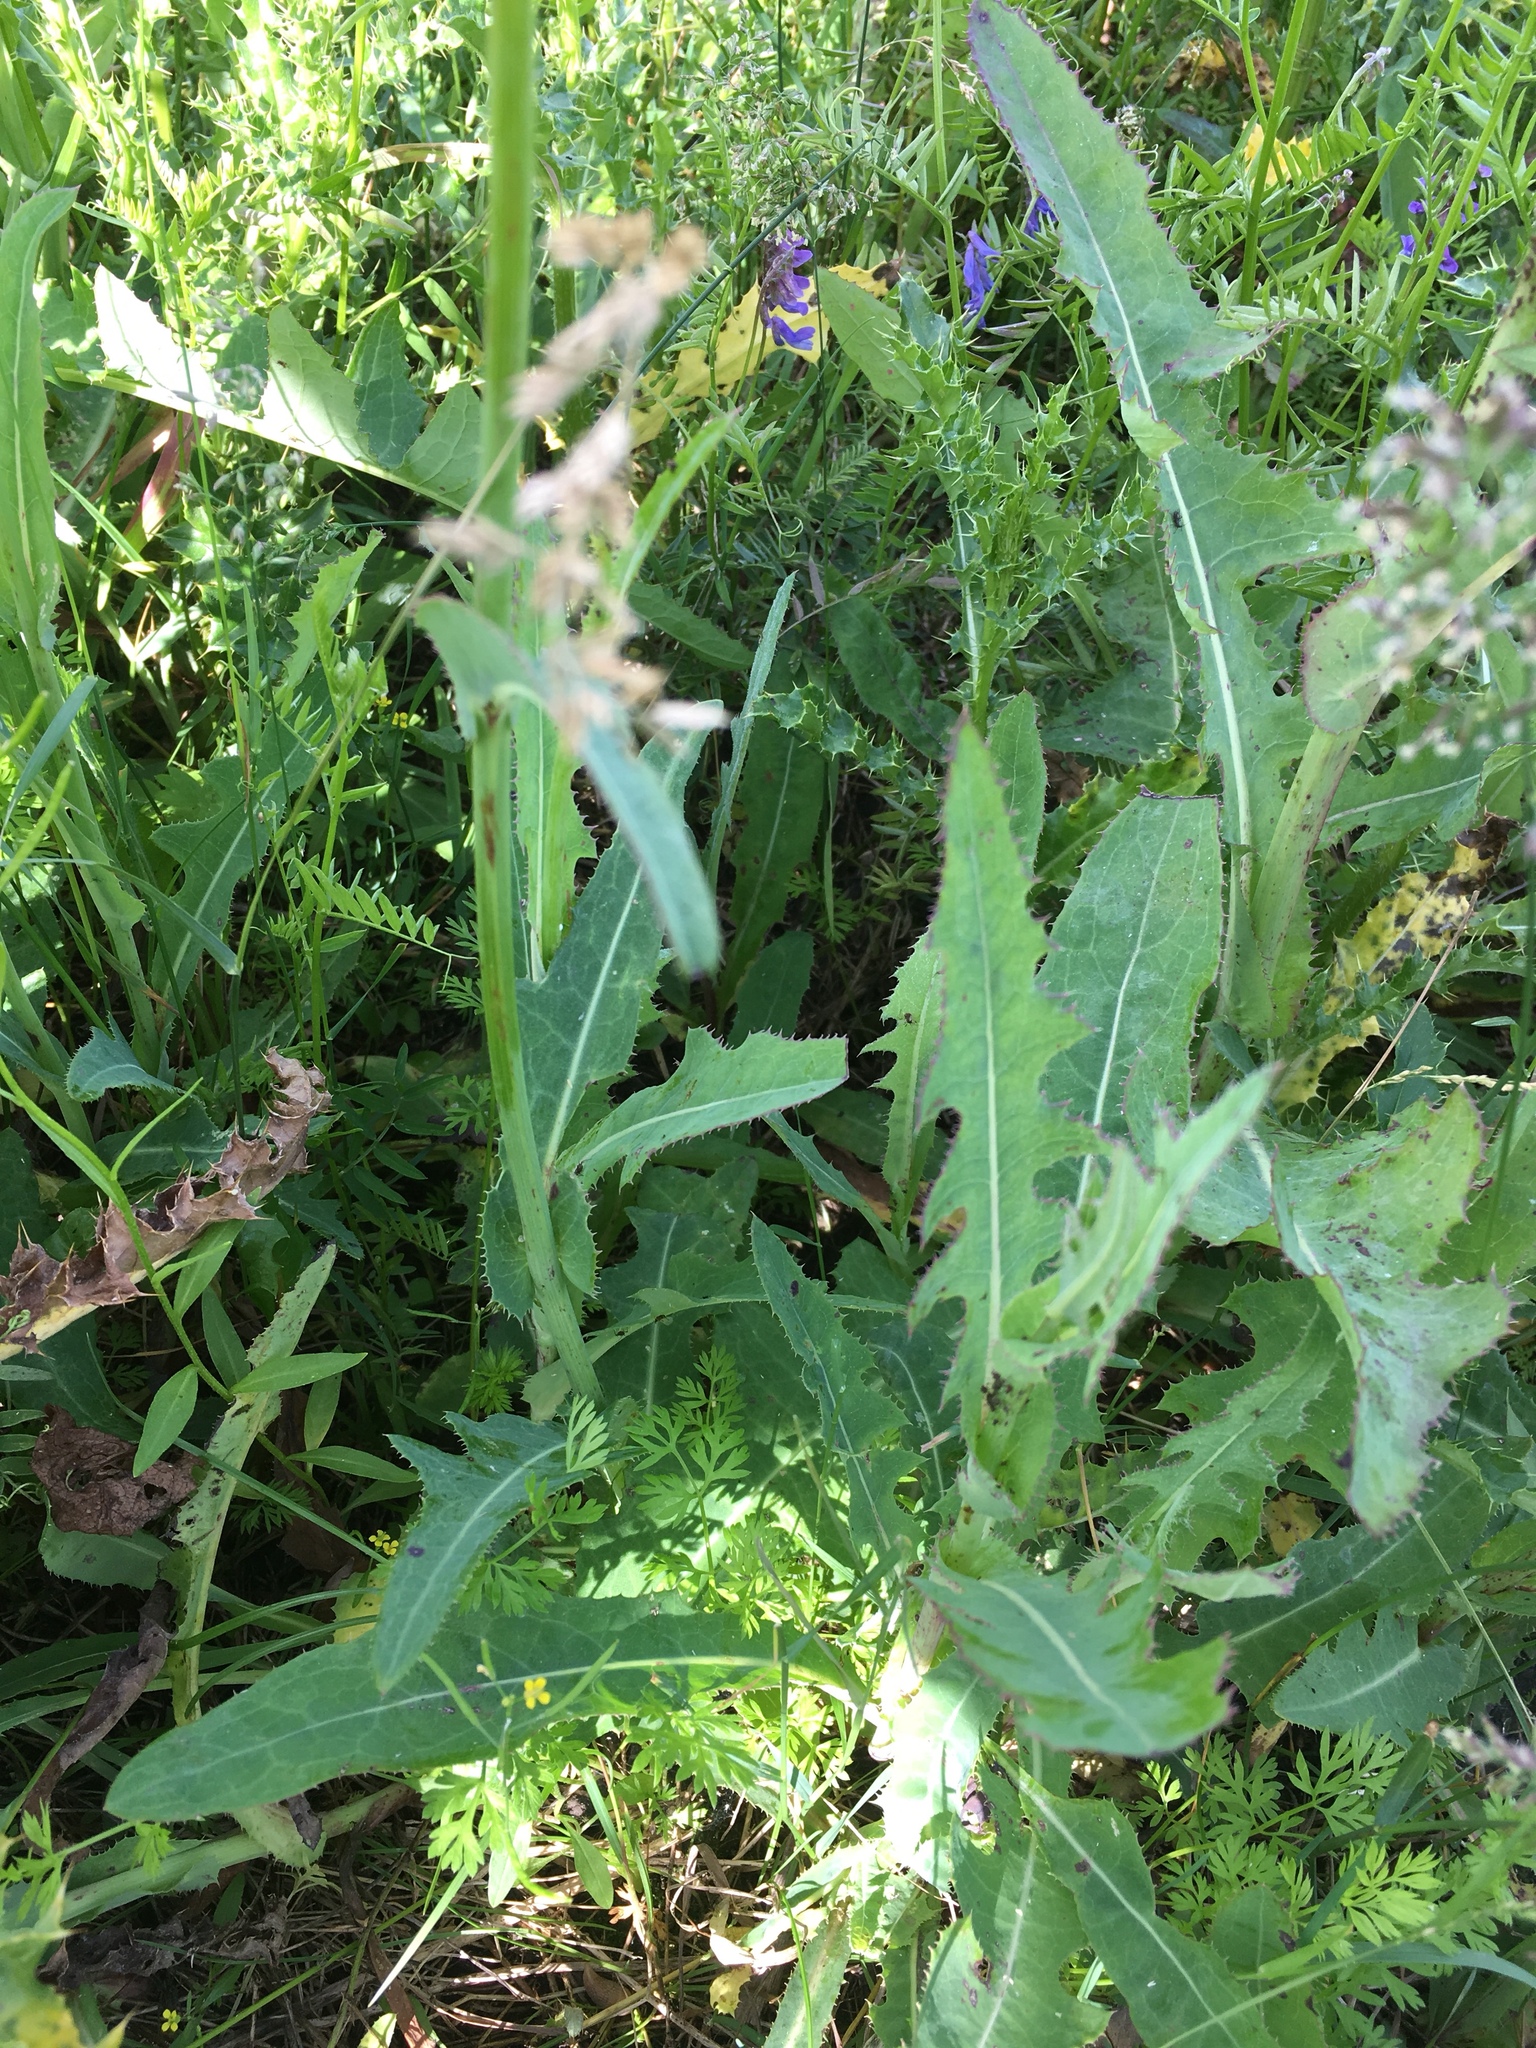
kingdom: Plantae
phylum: Tracheophyta
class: Magnoliopsida
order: Asterales
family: Asteraceae
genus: Sonchus
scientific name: Sonchus arvensis
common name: Perennial sow-thistle
